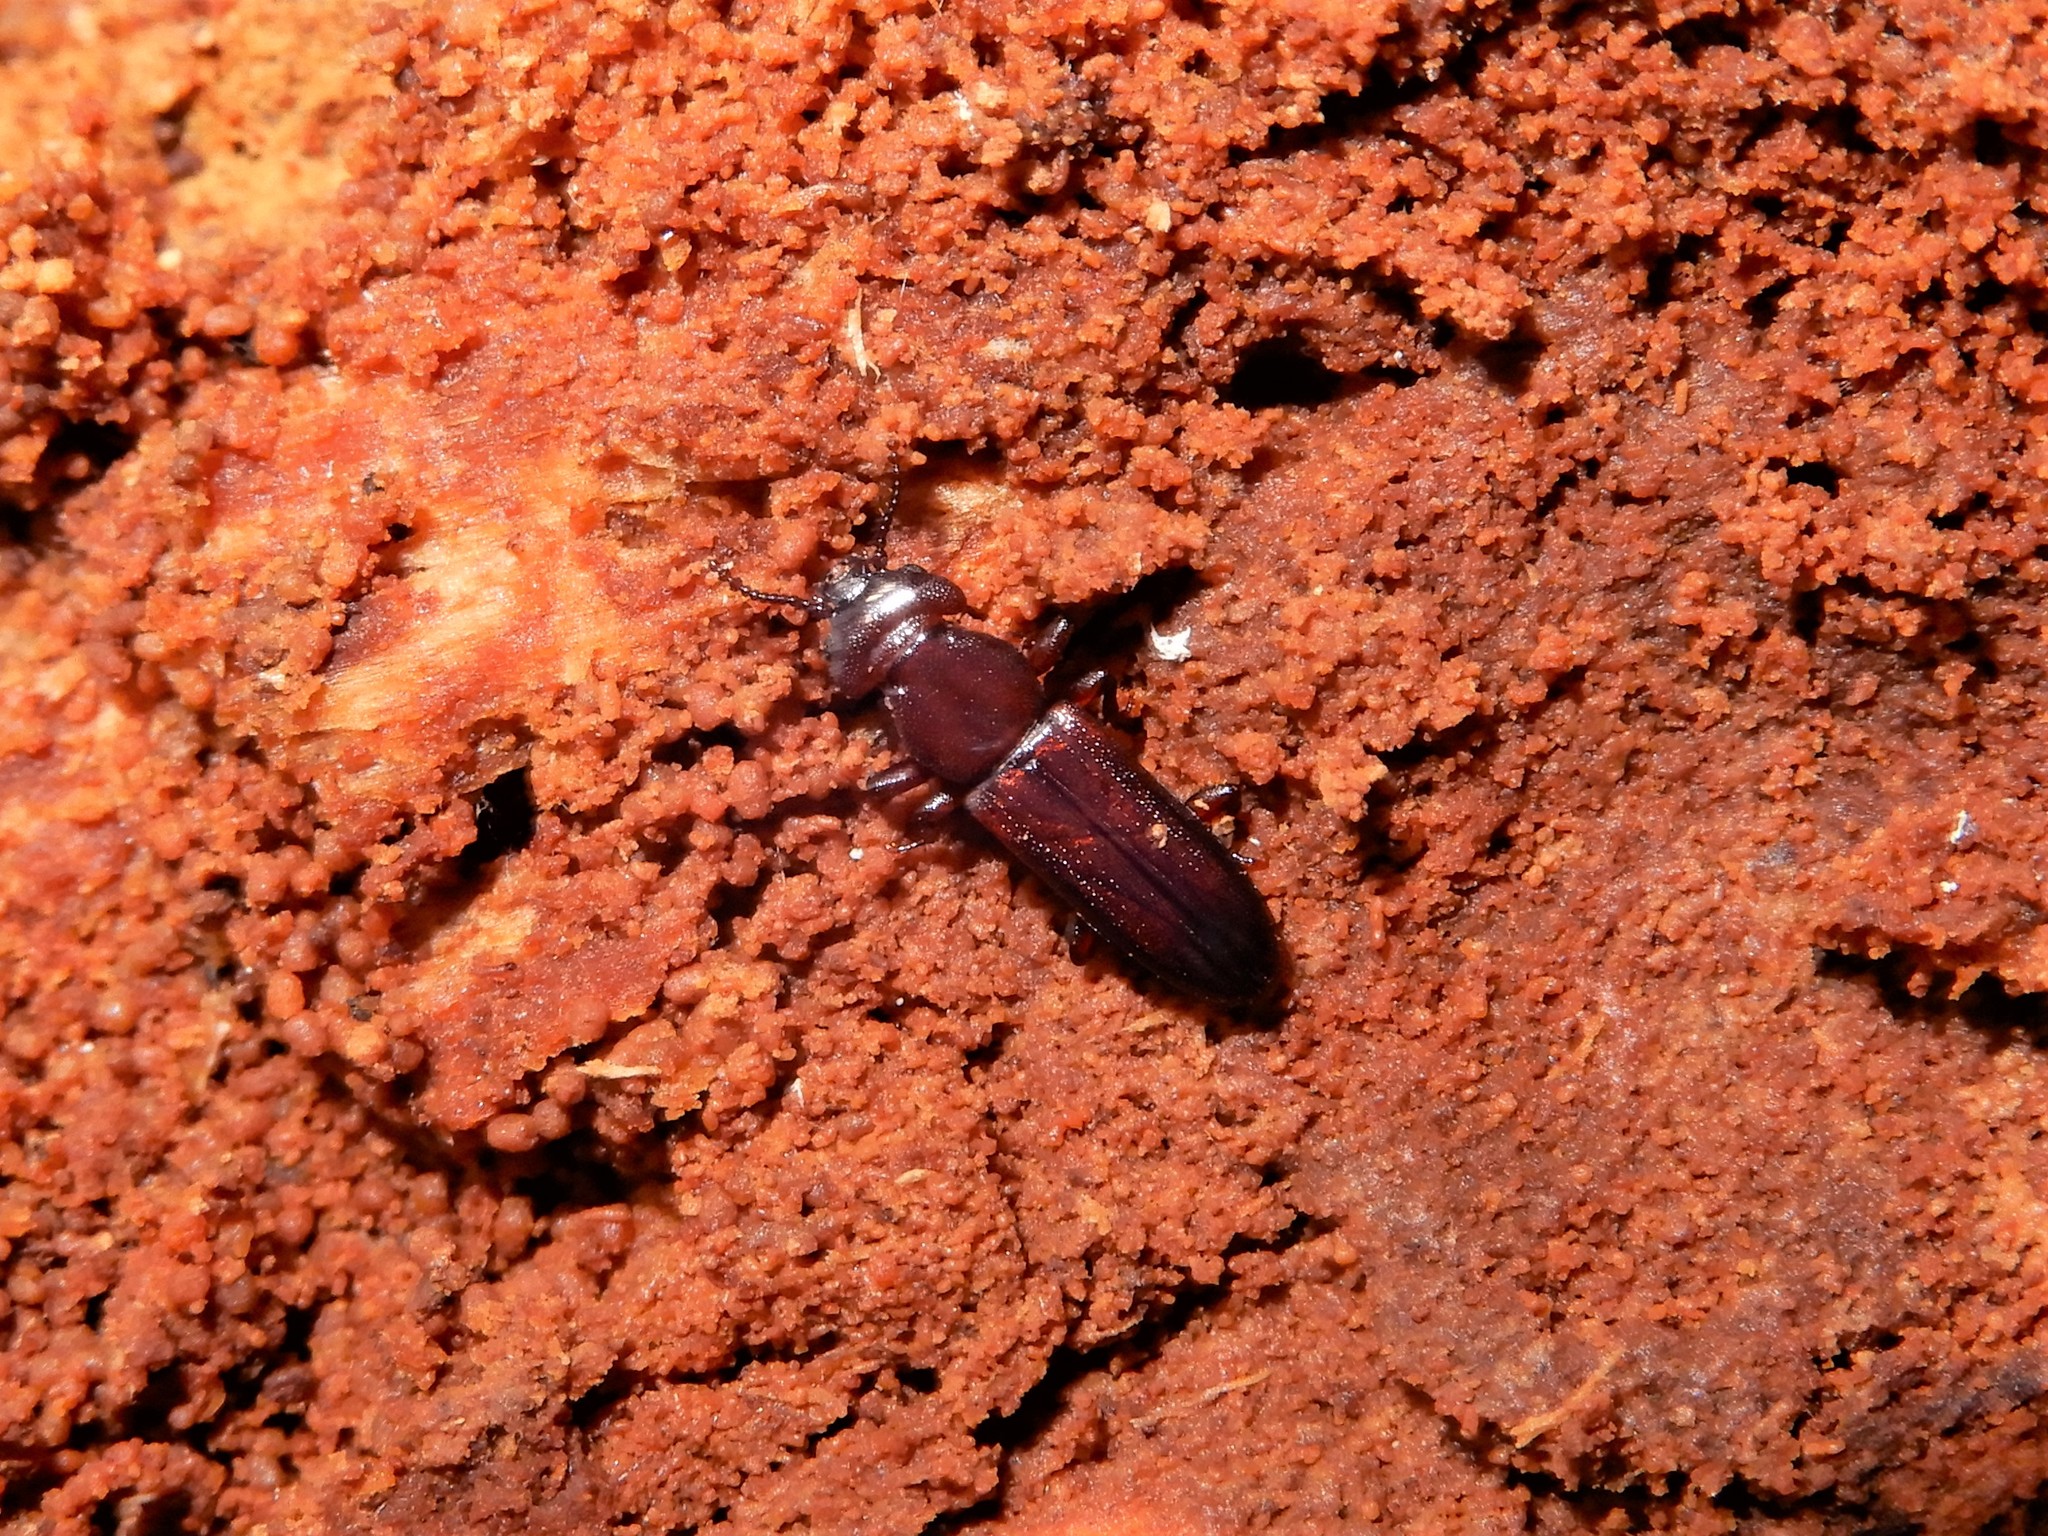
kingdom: Animalia
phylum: Arthropoda
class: Insecta
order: Coleoptera
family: Prostomidae
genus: Dryocora
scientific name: Dryocora
